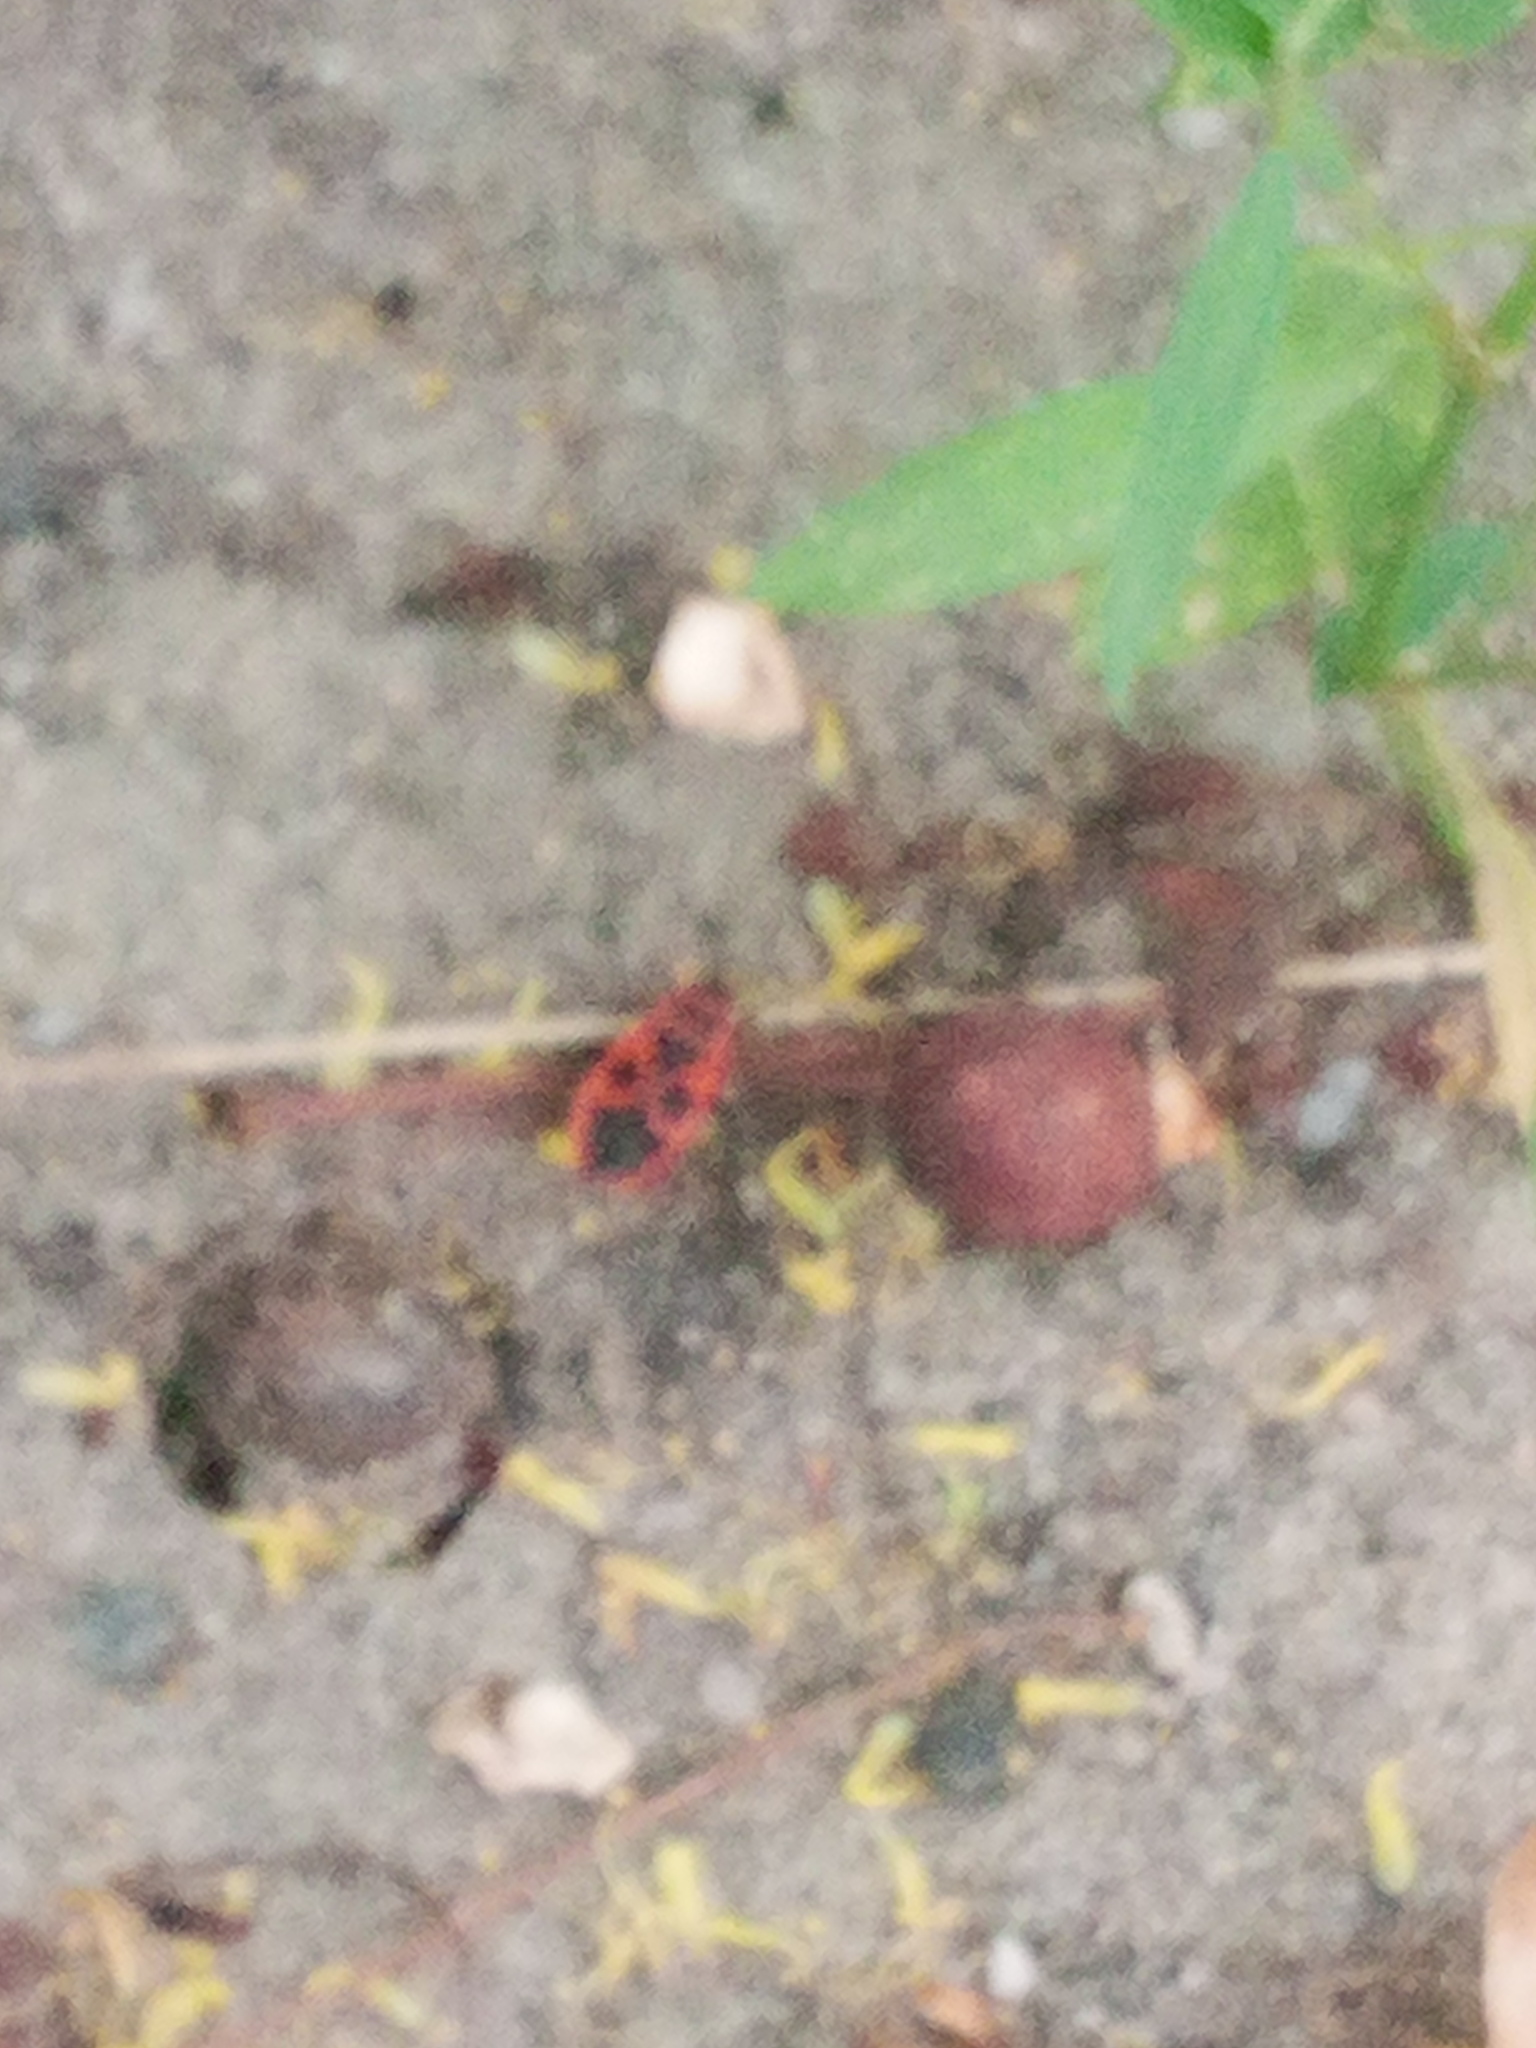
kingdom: Animalia
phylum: Arthropoda
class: Insecta
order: Hemiptera
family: Pyrrhocoridae
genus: Pyrrhocoris
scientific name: Pyrrhocoris apterus
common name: Firebug
